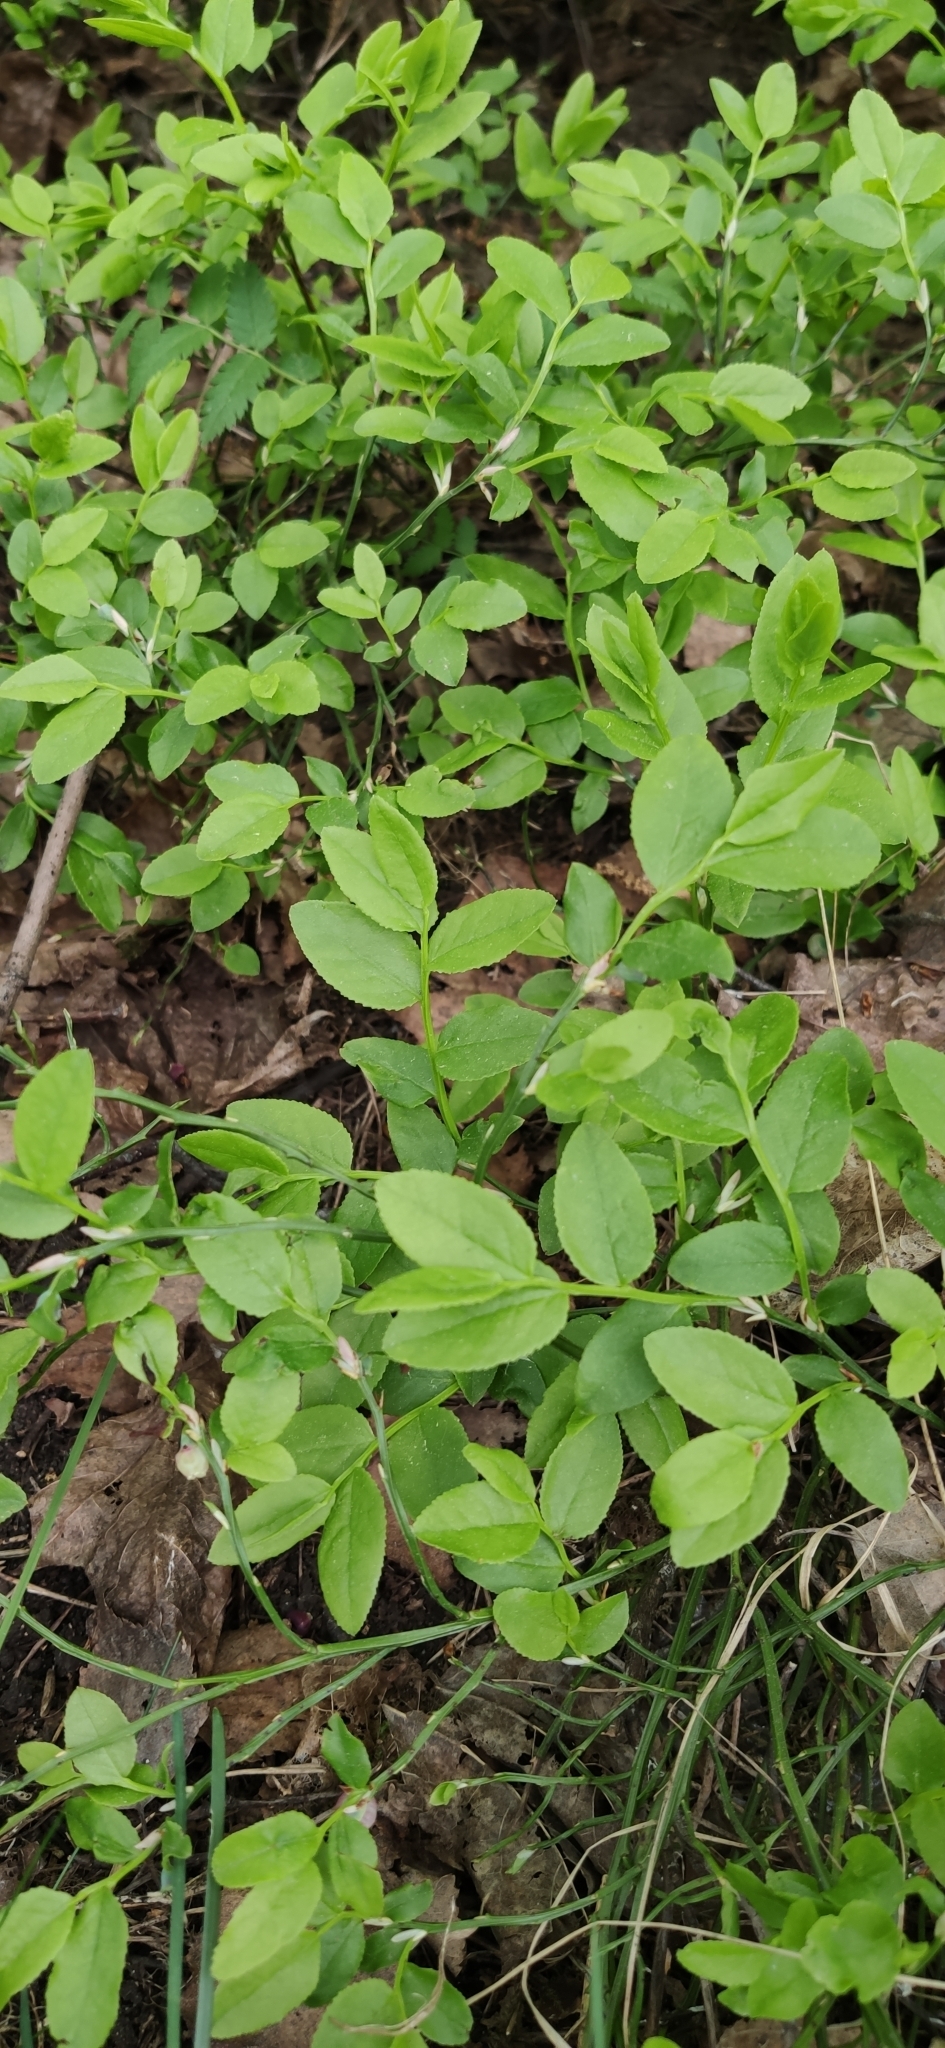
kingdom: Plantae
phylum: Tracheophyta
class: Magnoliopsida
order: Ericales
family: Ericaceae
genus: Vaccinium
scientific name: Vaccinium myrtillus
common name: Bilberry
